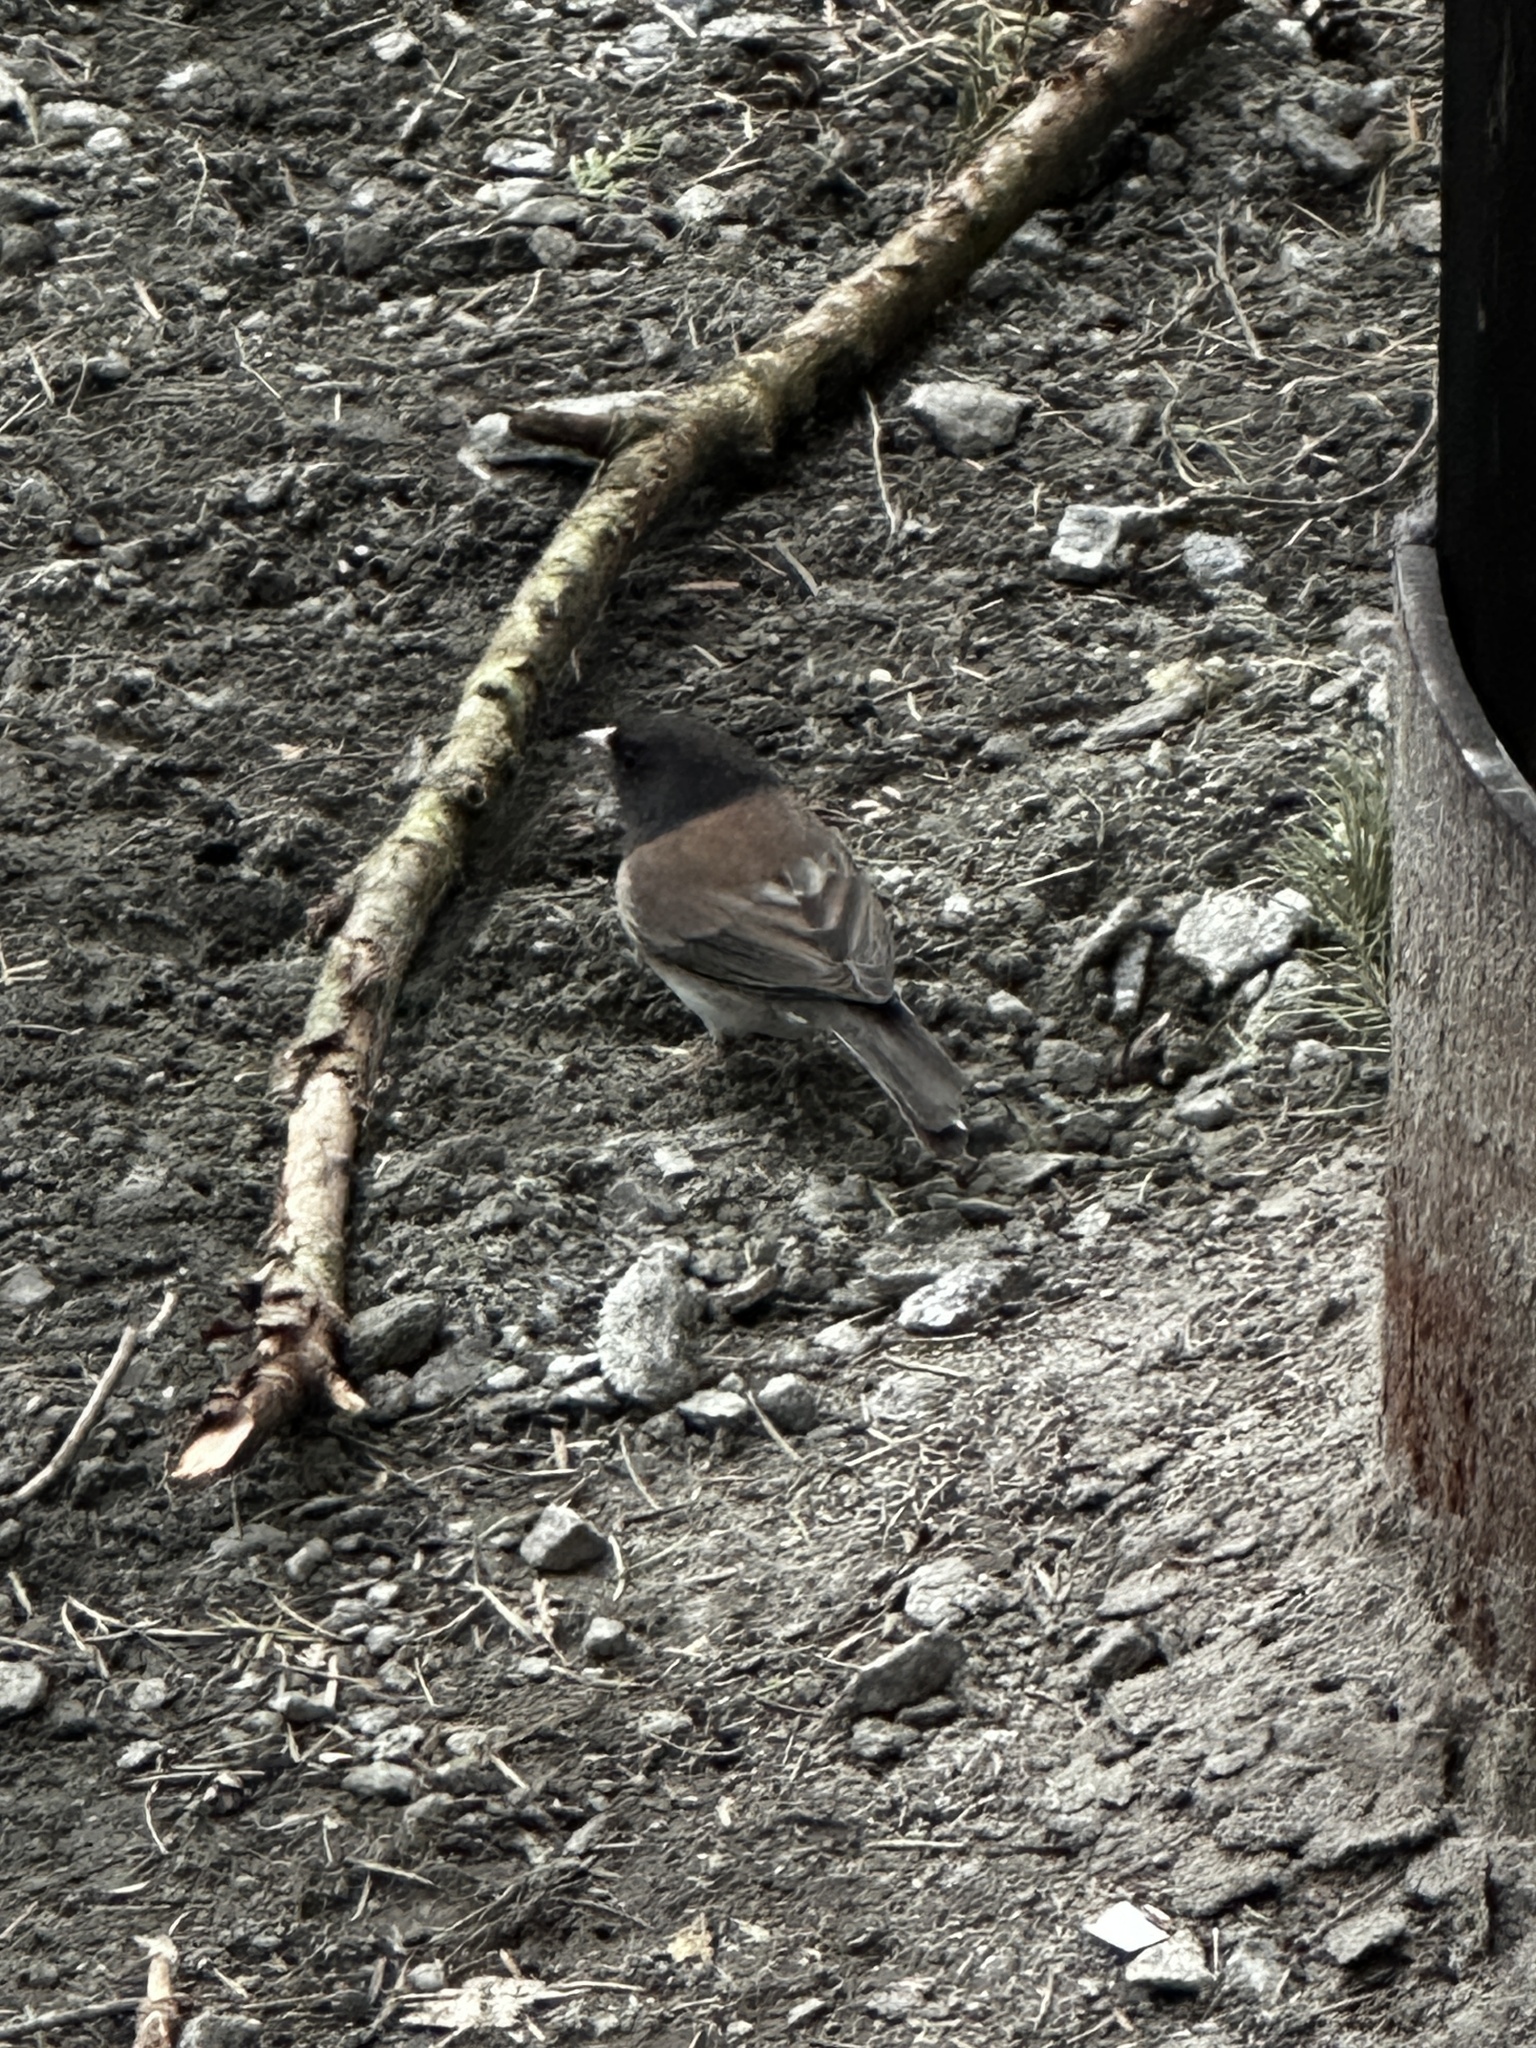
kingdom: Animalia
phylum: Chordata
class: Aves
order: Passeriformes
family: Passerellidae
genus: Junco
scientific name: Junco hyemalis
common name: Dark-eyed junco
